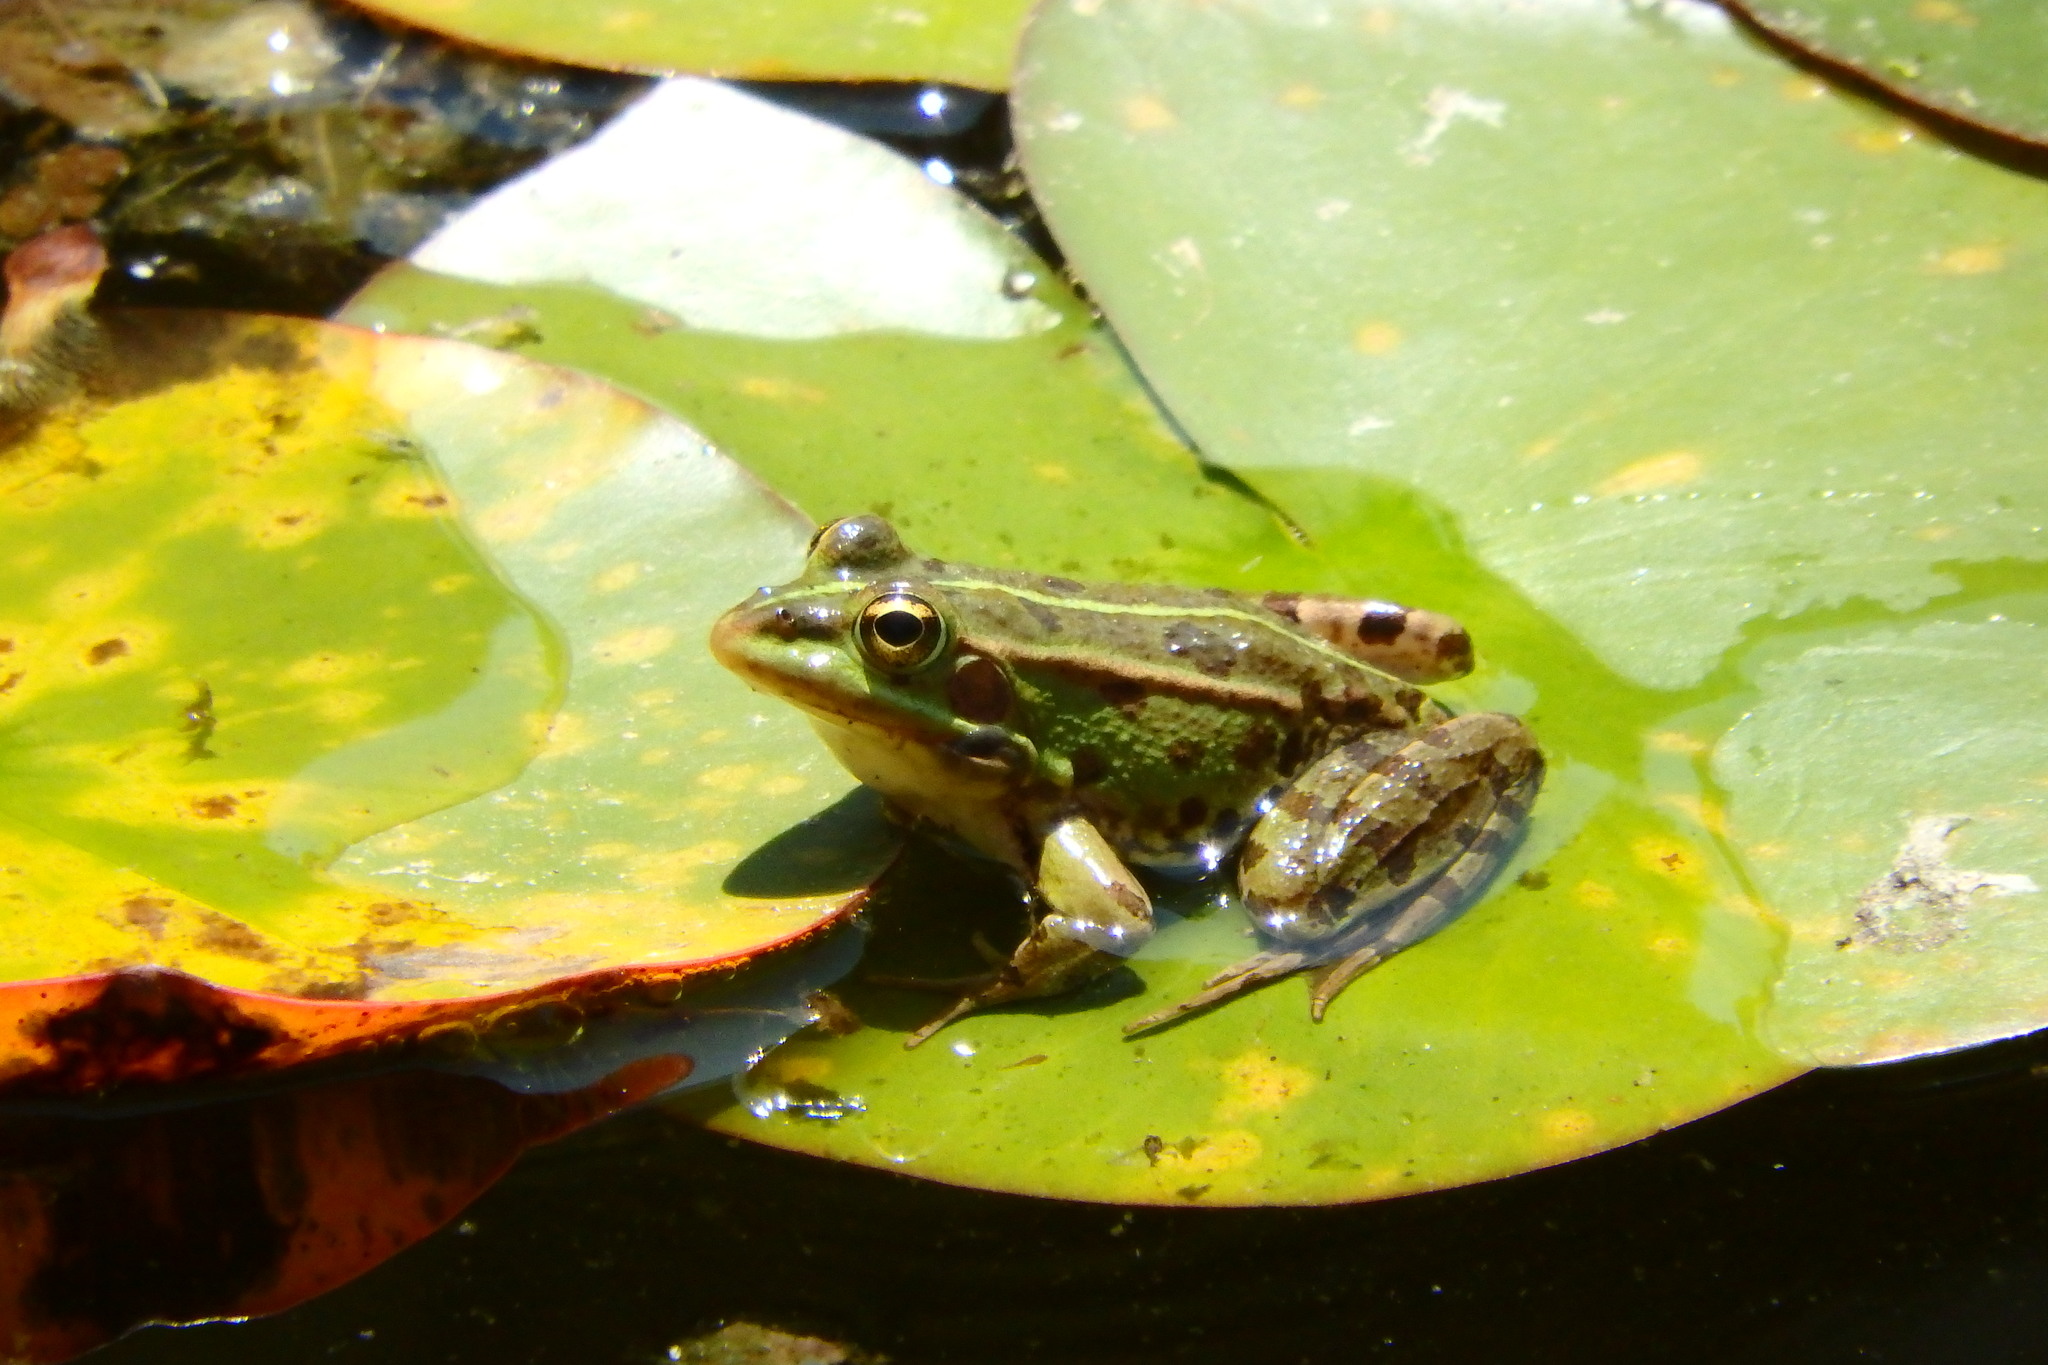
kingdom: Animalia
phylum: Chordata
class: Amphibia
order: Anura
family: Ranidae
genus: Pelophylax
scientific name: Pelophylax perezi
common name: Perez's frog
